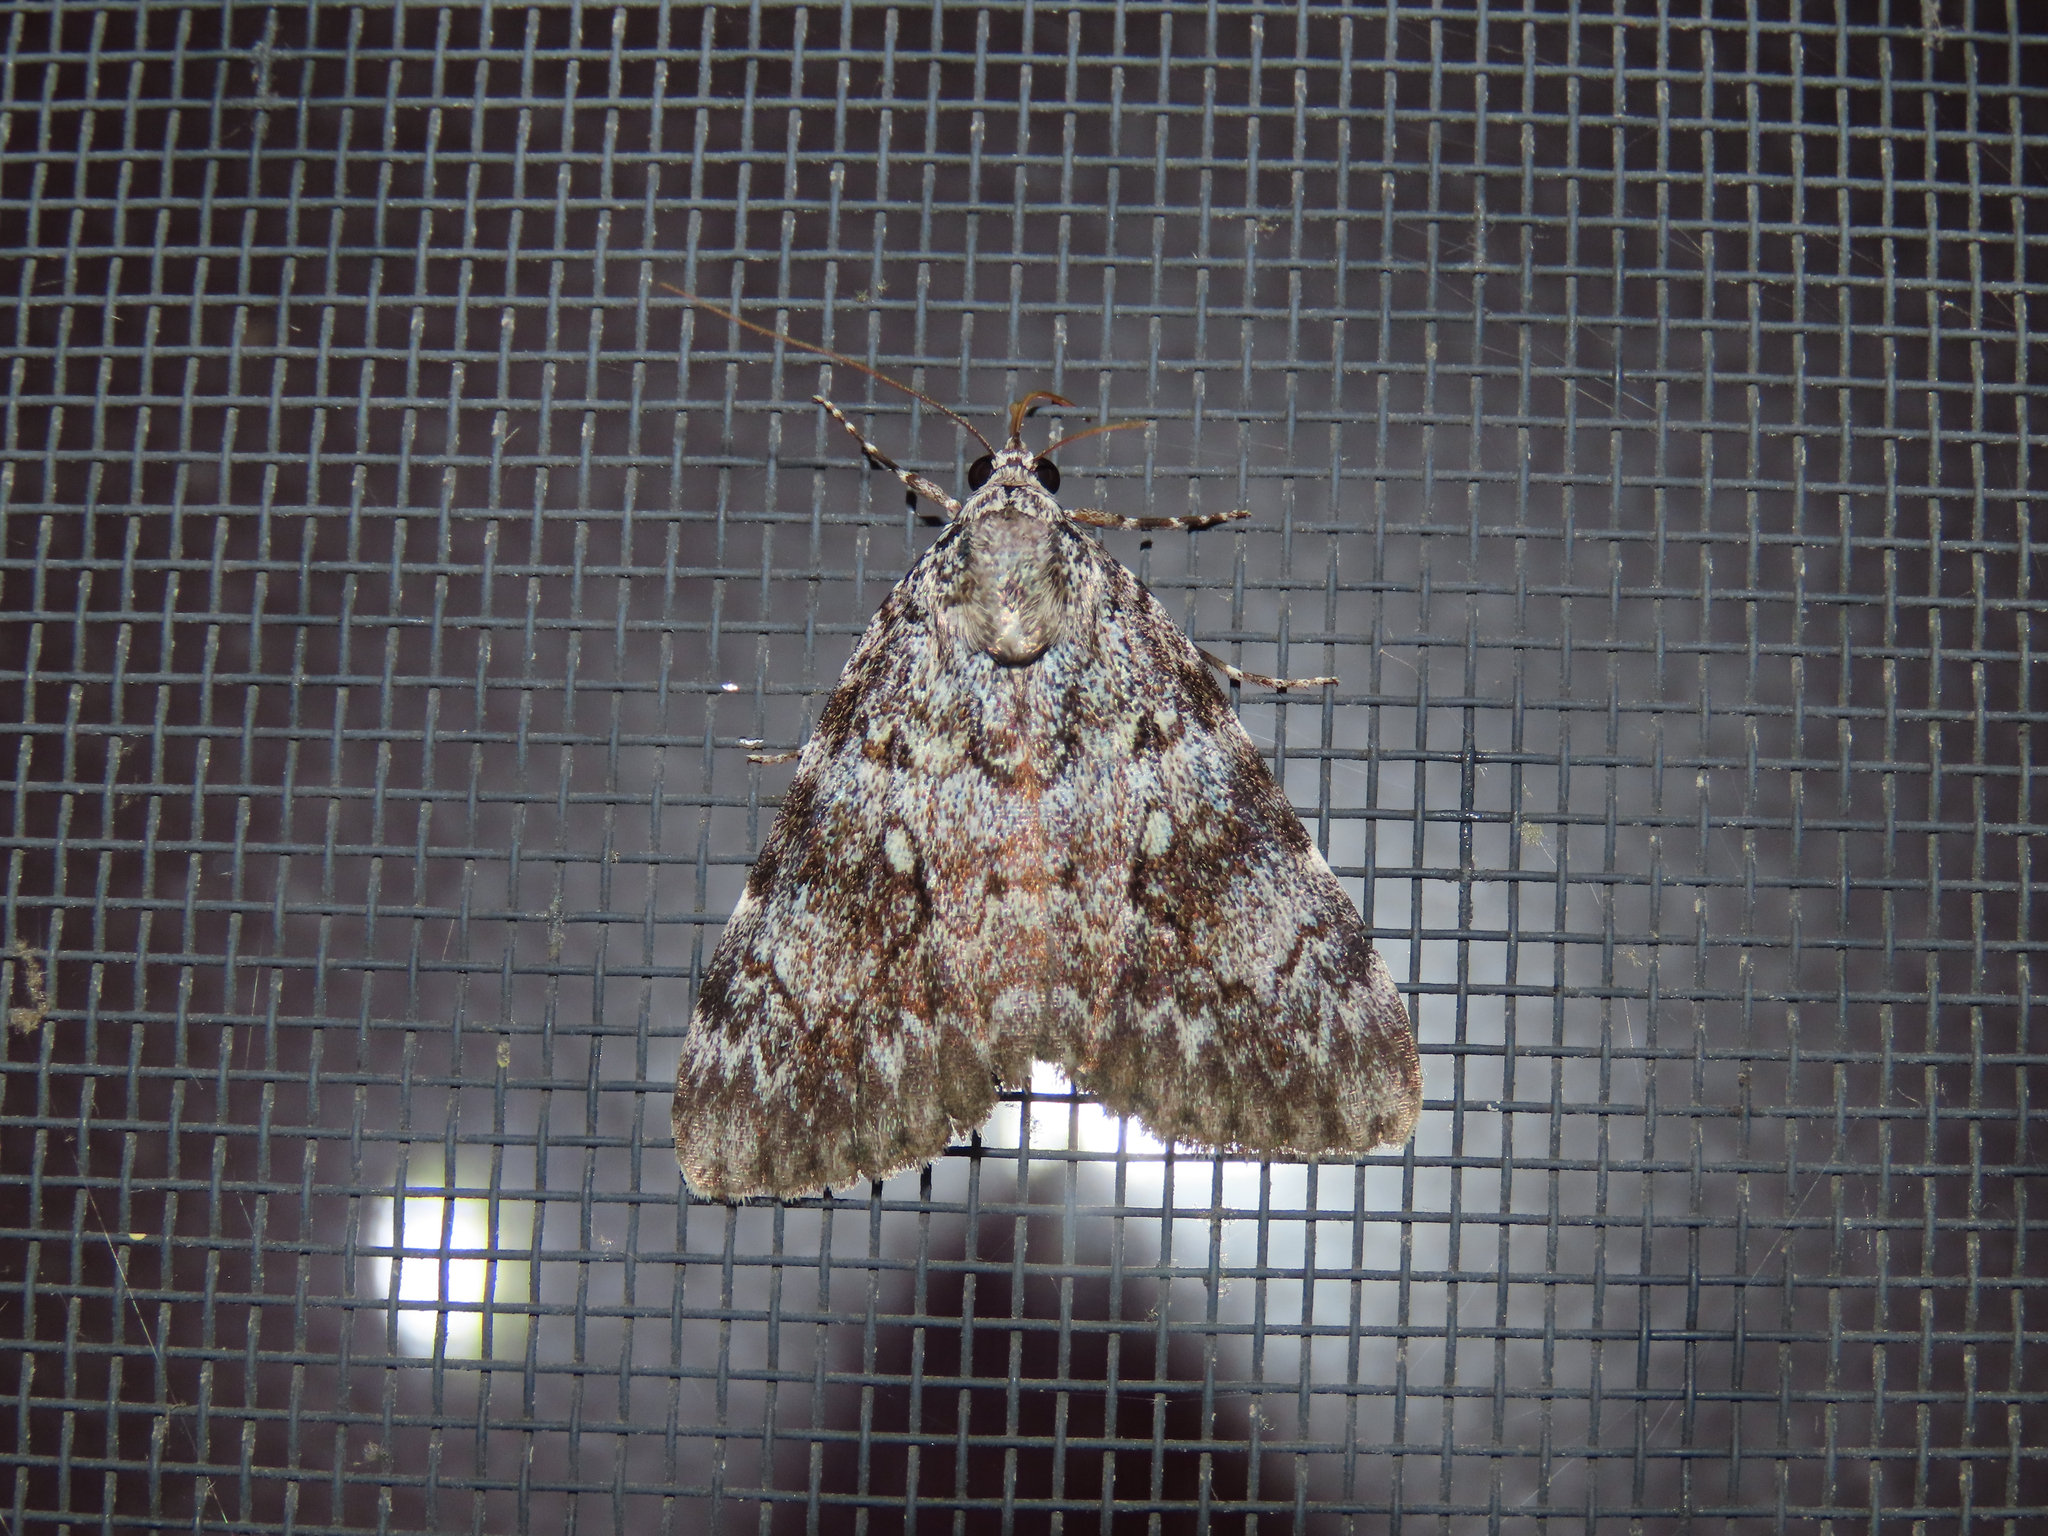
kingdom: Animalia
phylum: Arthropoda
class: Insecta
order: Lepidoptera
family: Erebidae
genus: Catocala
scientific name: Catocala lineella
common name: Little lined underwing
